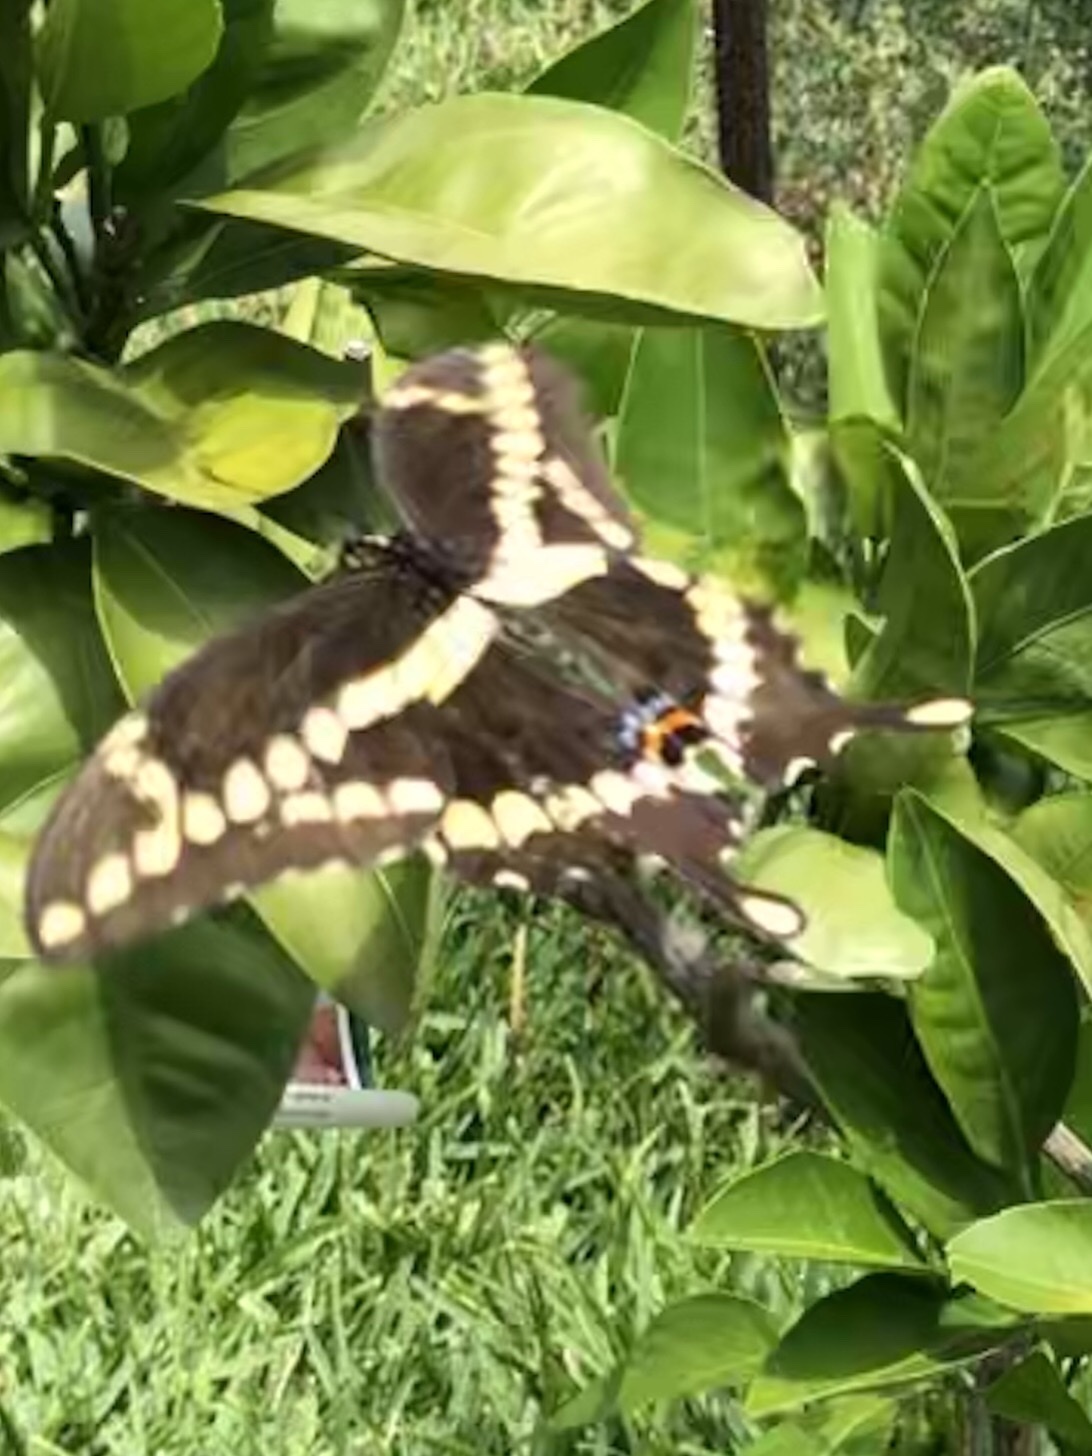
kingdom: Animalia
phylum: Arthropoda
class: Insecta
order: Lepidoptera
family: Papilionidae
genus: Papilio
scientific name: Papilio cresphontes
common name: Giant swallowtail
